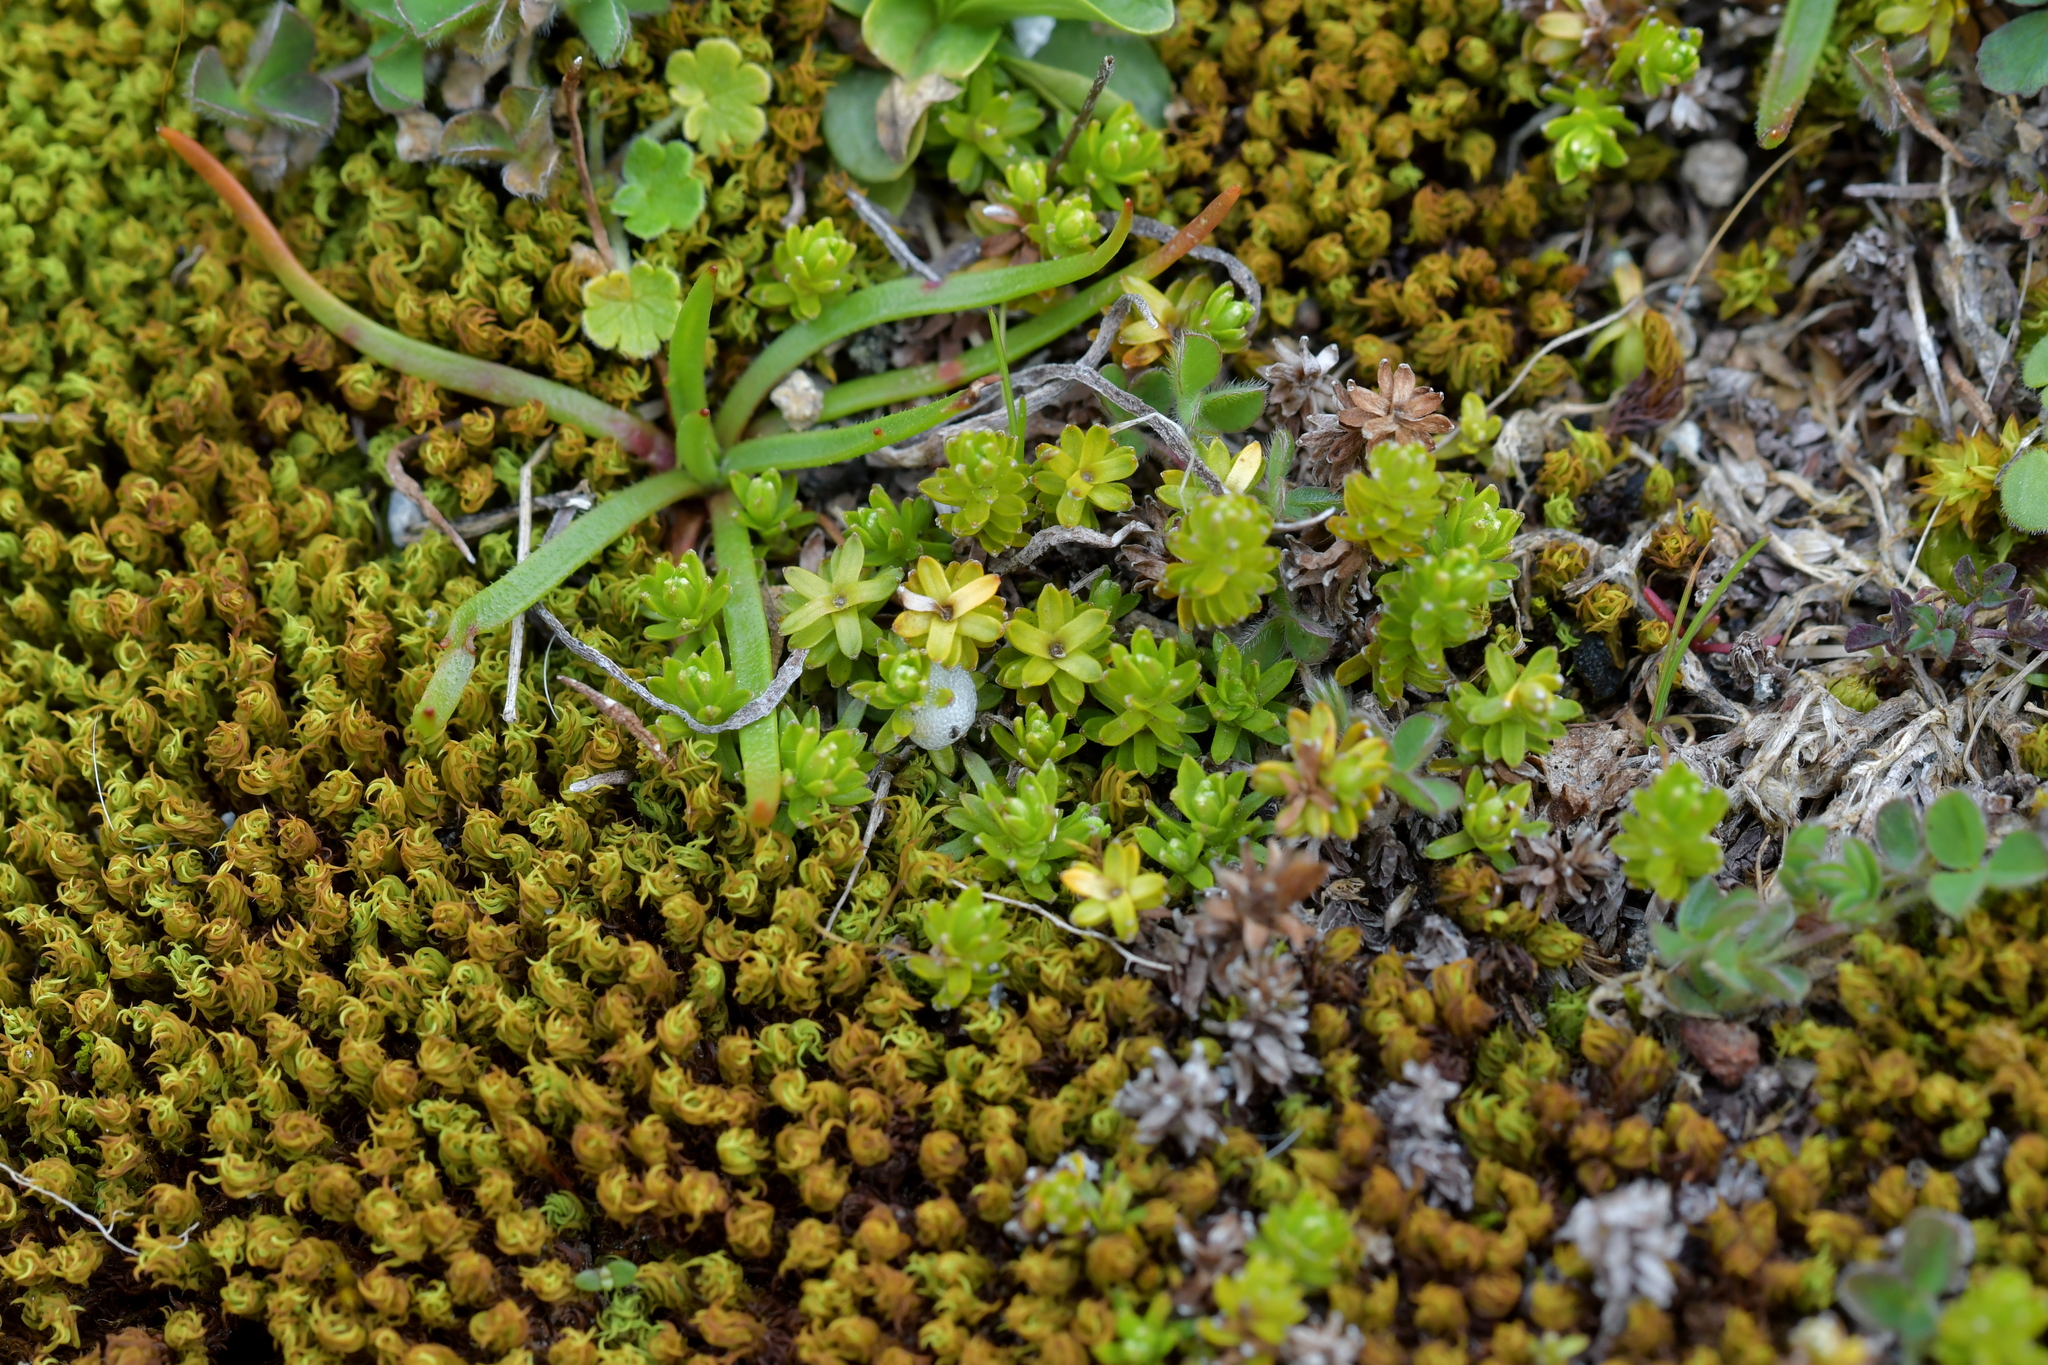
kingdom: Plantae
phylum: Tracheophyta
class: Magnoliopsida
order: Asterales
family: Asteraceae
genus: Raoulia
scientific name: Raoulia glabra
